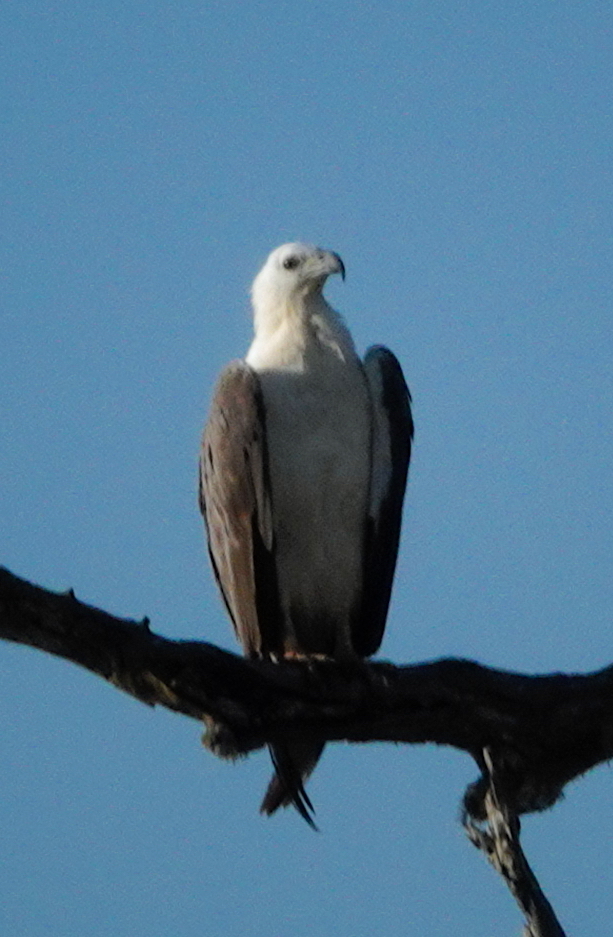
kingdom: Animalia
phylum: Chordata
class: Aves
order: Accipitriformes
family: Accipitridae
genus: Haliaeetus
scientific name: Haliaeetus leucogaster
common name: White-bellied sea eagle
